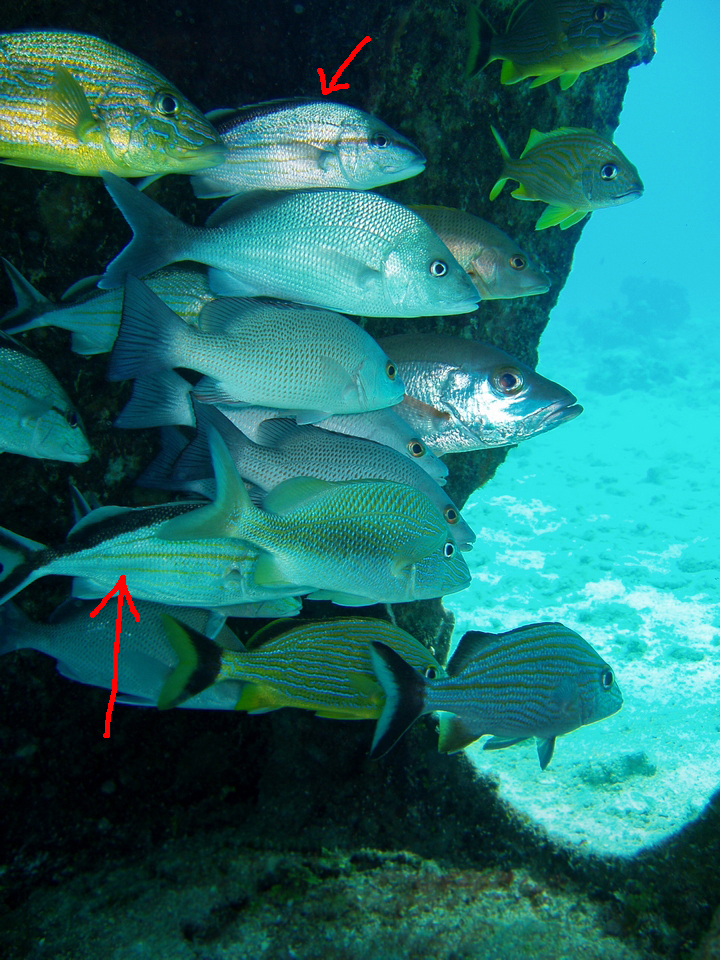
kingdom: Animalia
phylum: Chordata
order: Perciformes
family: Haemulidae
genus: Haemulon
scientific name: Haemulon melanurum
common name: Cottonwick
